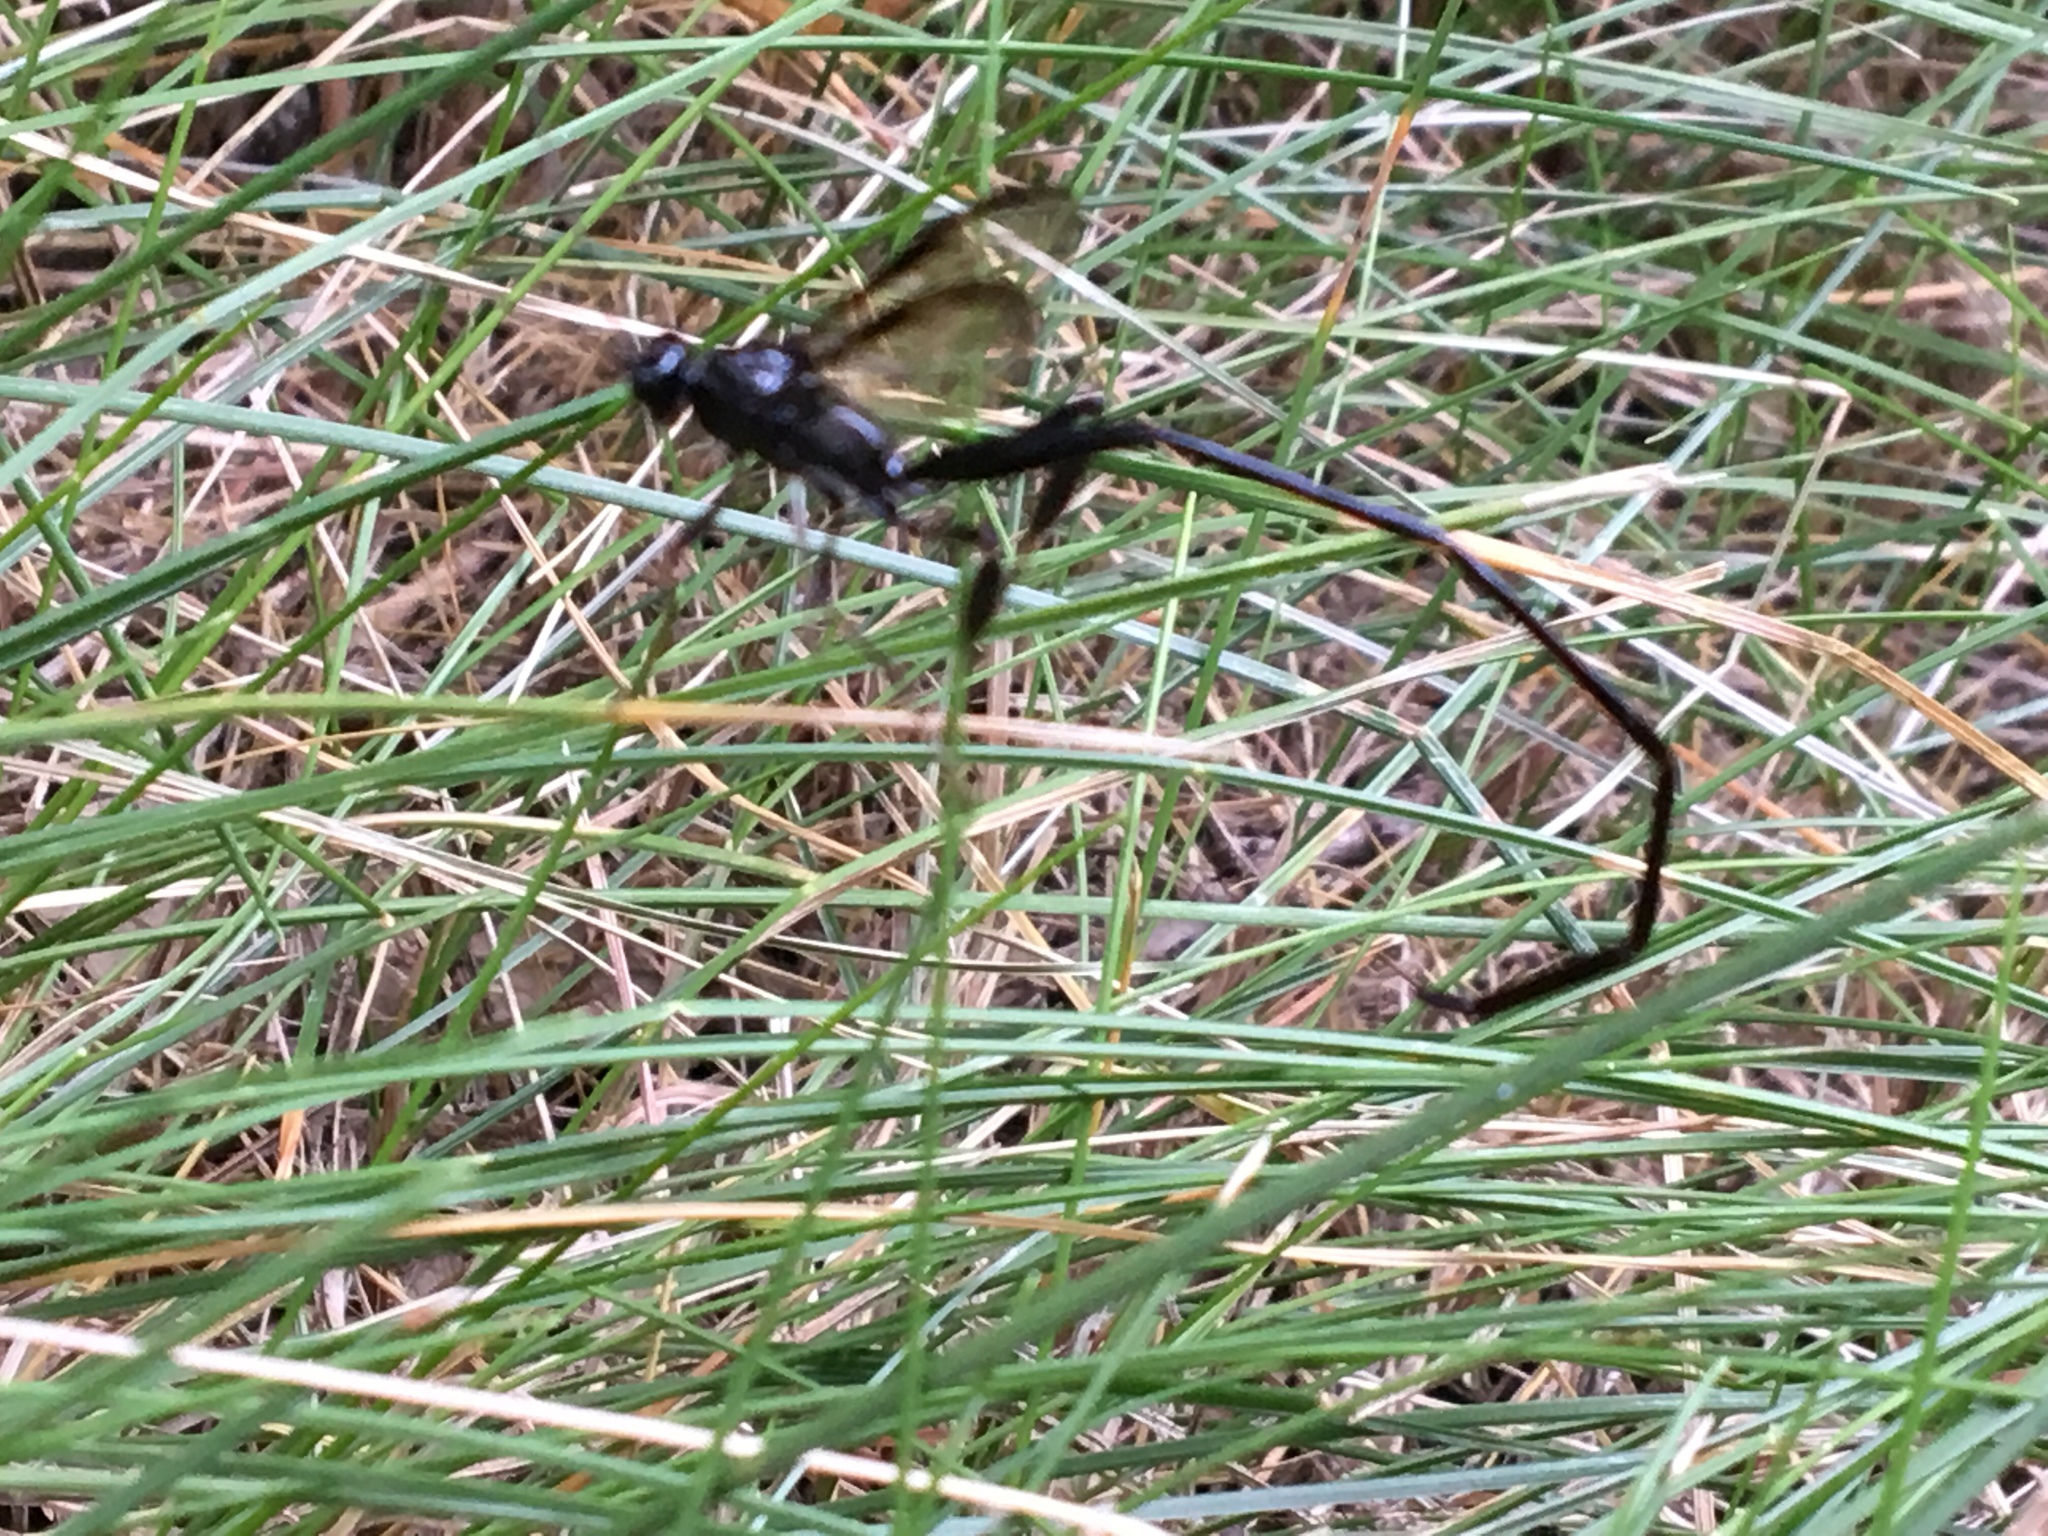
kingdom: Animalia
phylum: Arthropoda
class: Insecta
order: Hymenoptera
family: Pelecinidae
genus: Pelecinus
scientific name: Pelecinus polyturator
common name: American pelecinid wasp
